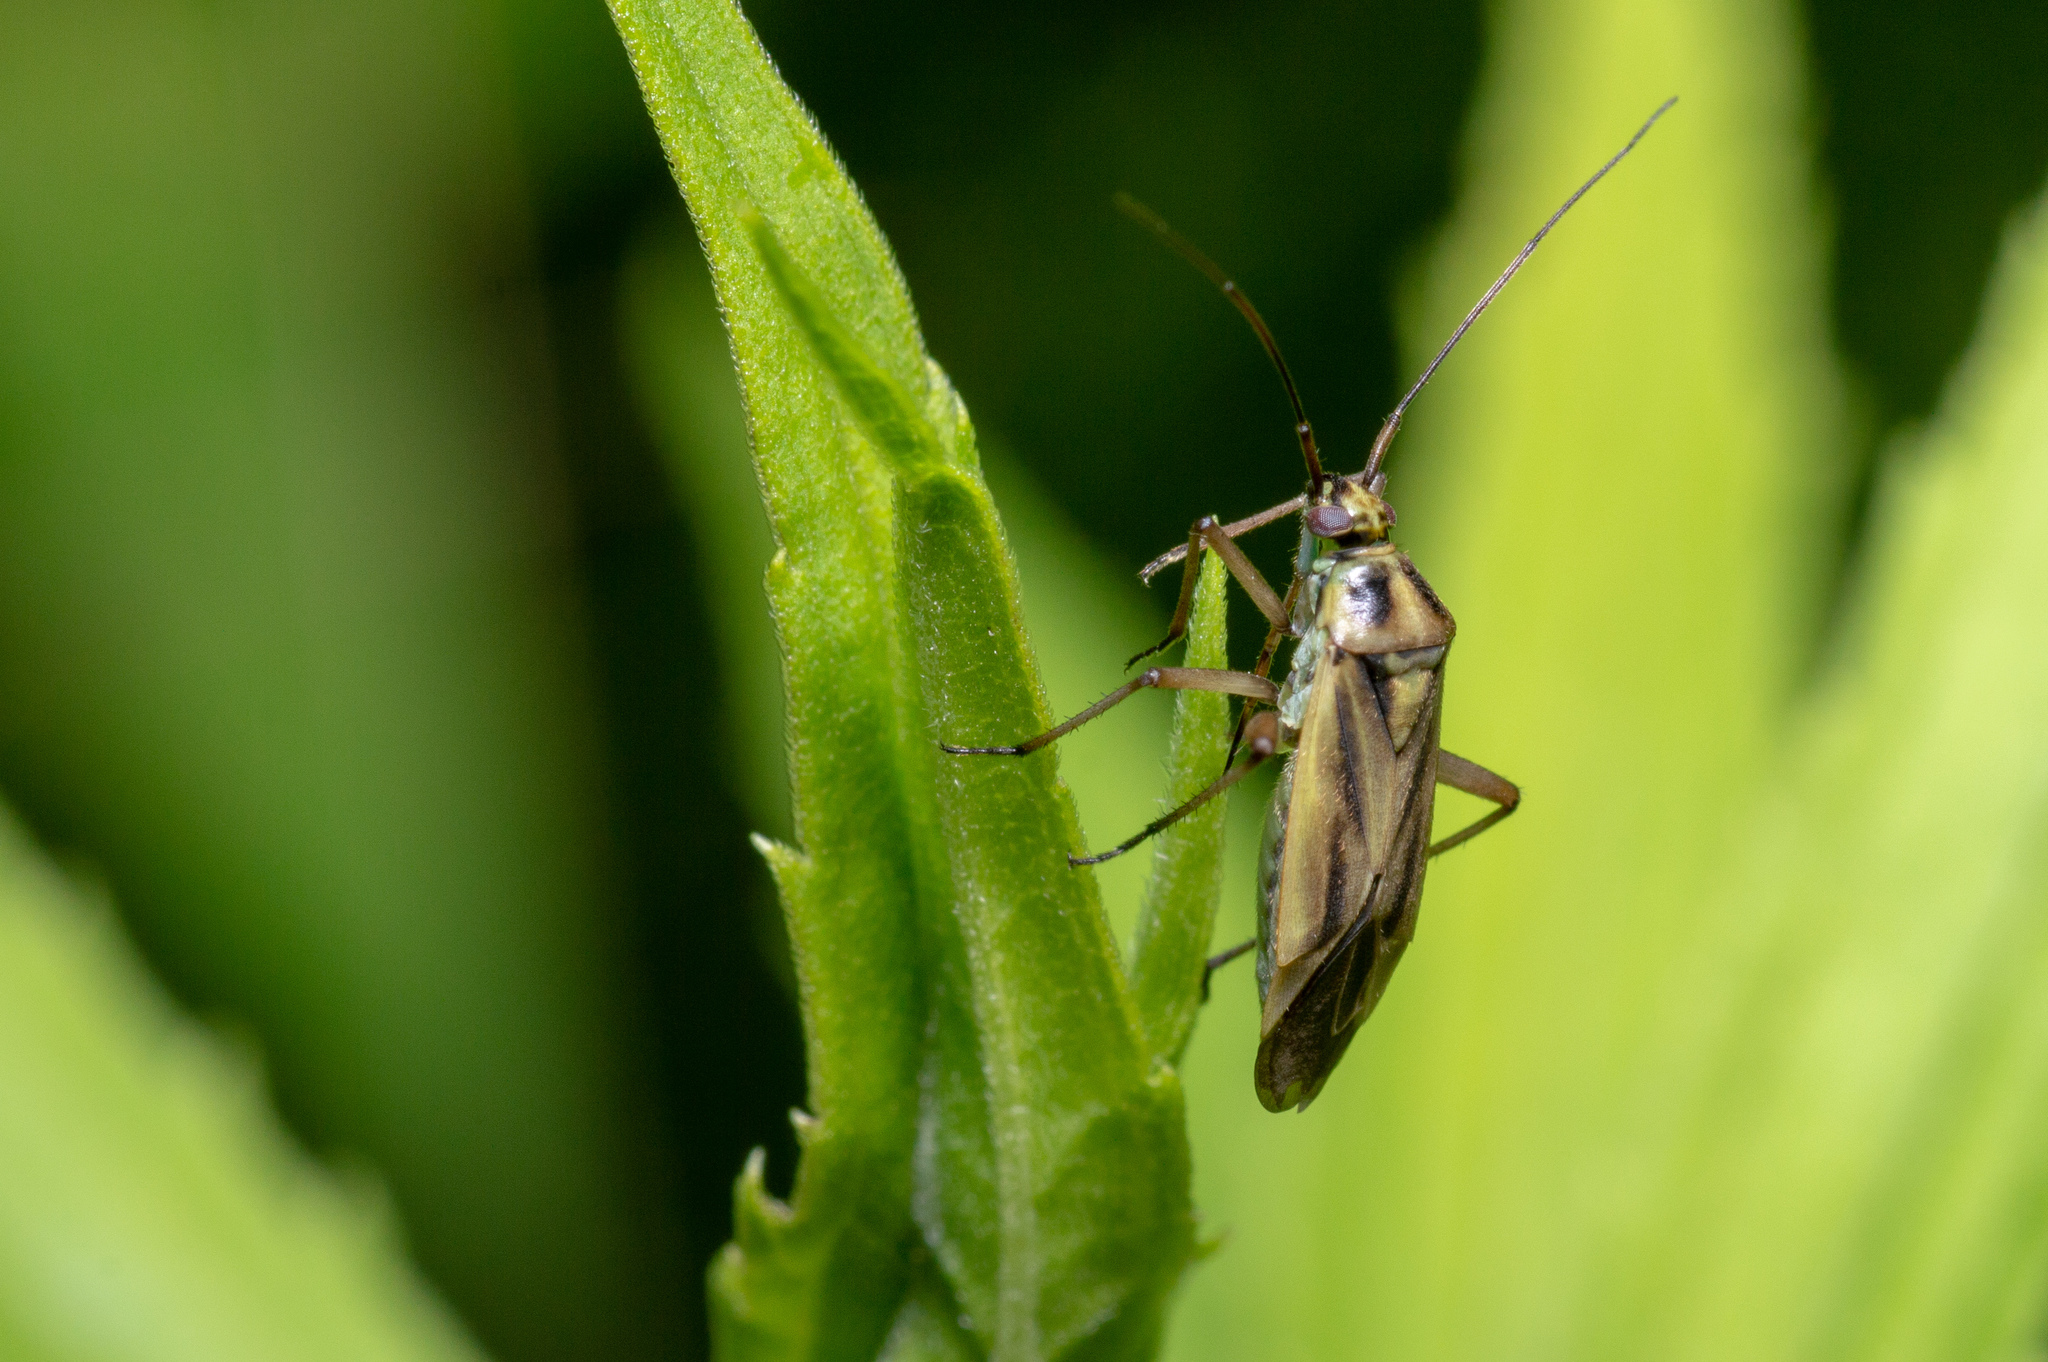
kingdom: Animalia
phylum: Arthropoda
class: Insecta
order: Hemiptera
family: Miridae
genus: Stenotus
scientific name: Stenotus binotatus
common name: Plant bug
